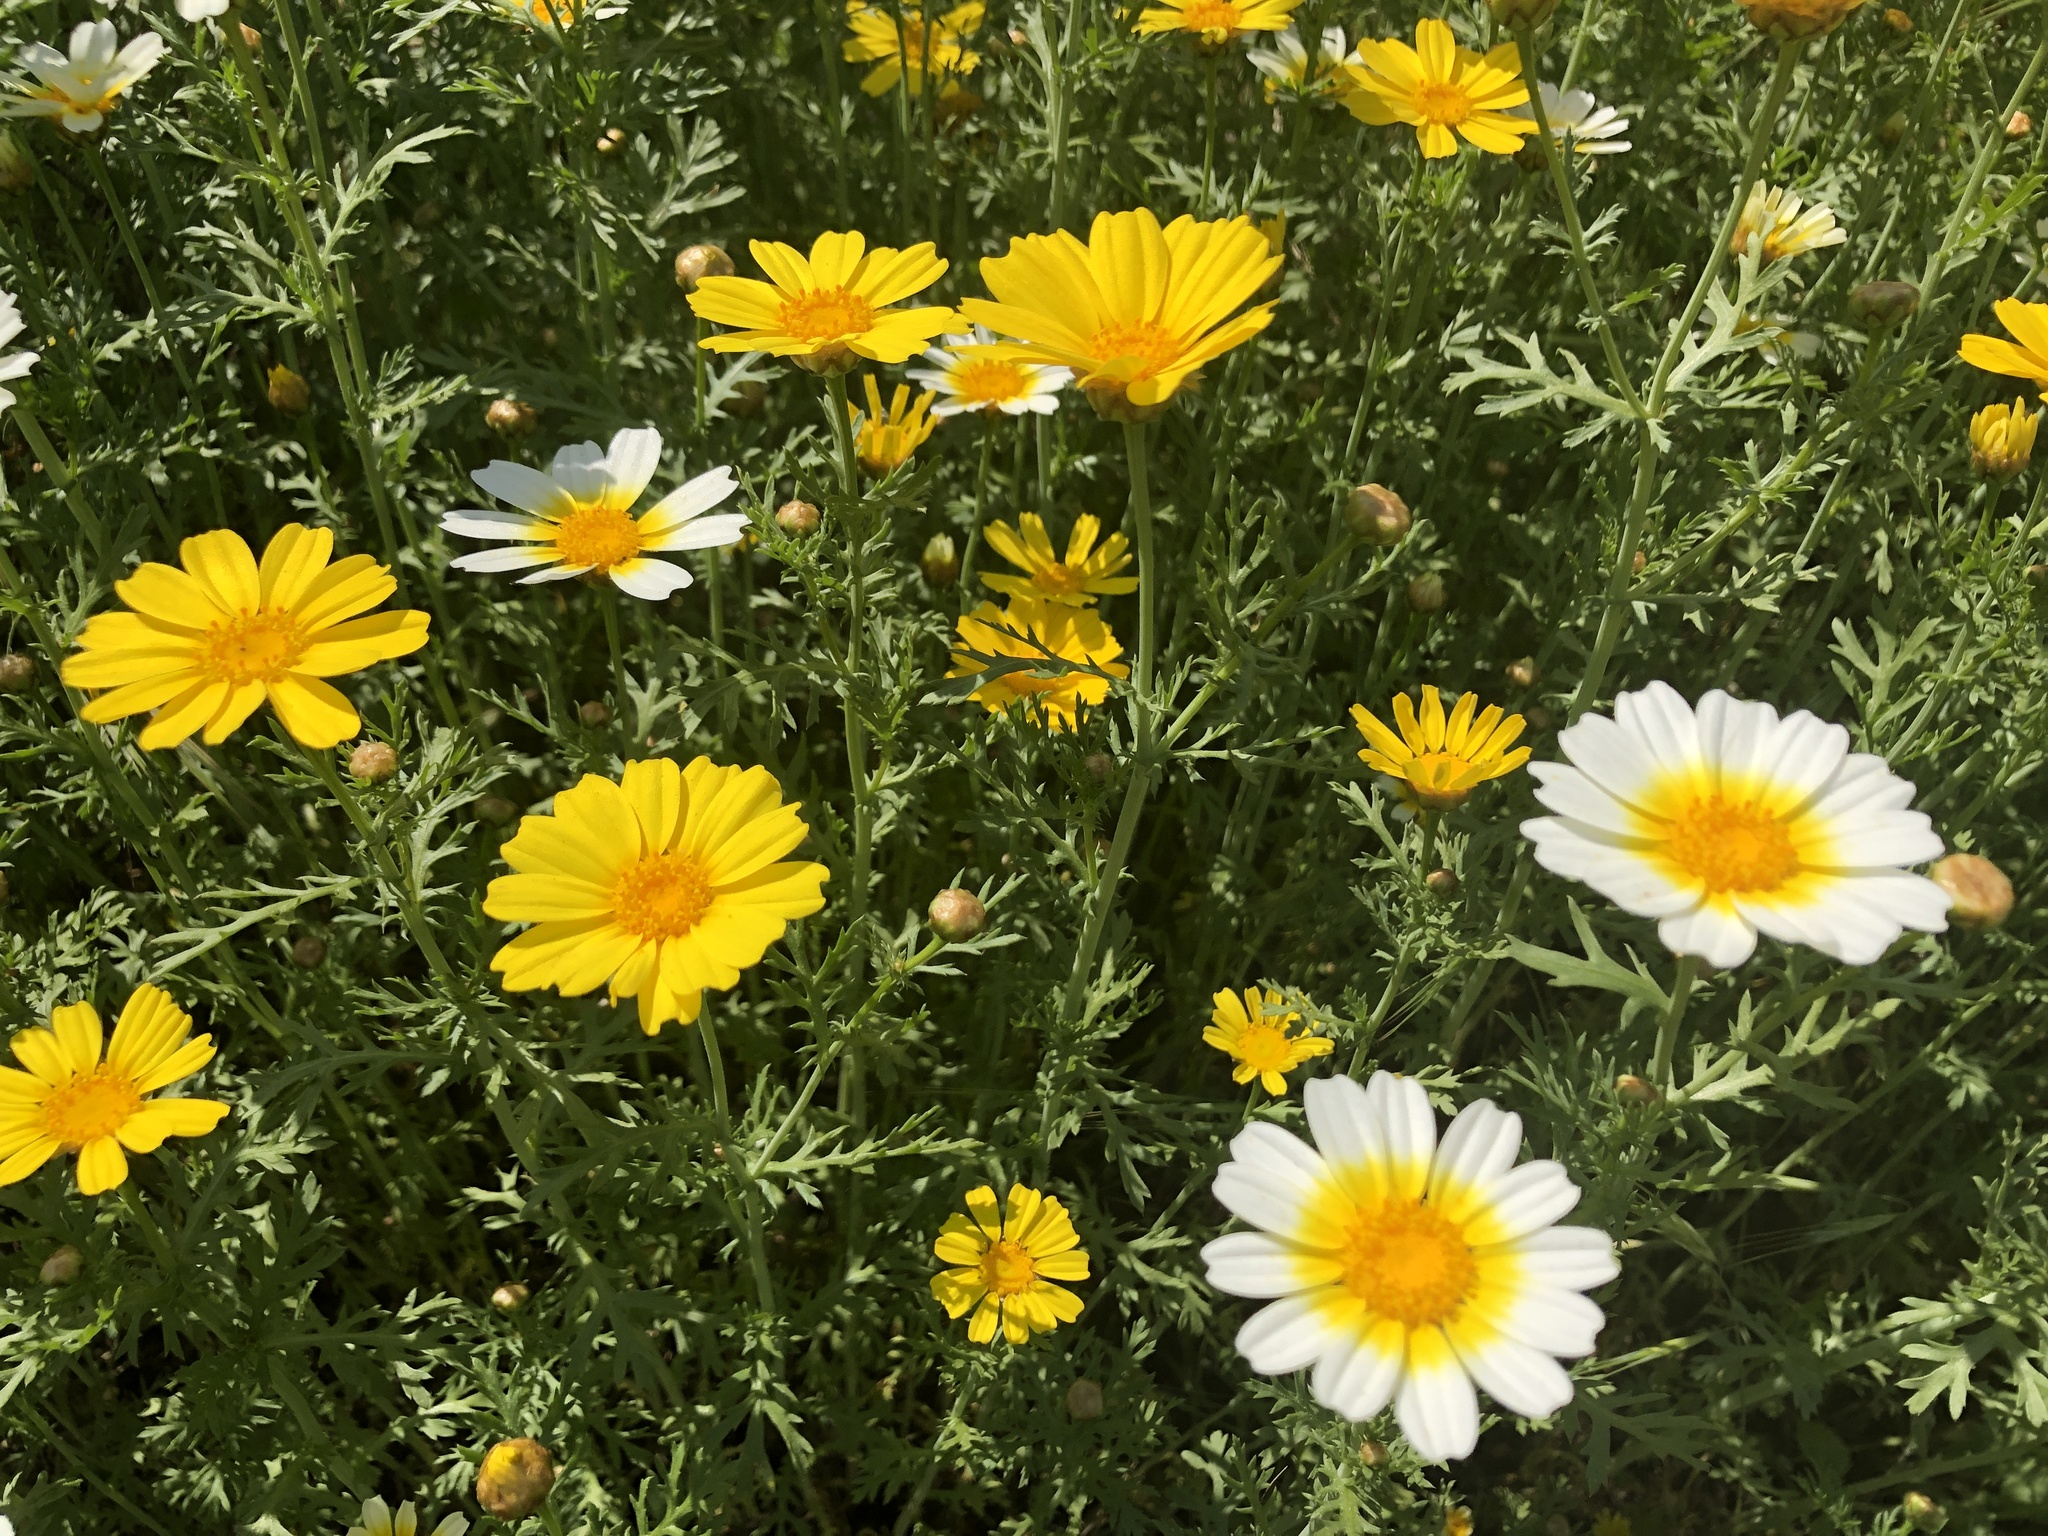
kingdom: Plantae
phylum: Tracheophyta
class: Magnoliopsida
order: Asterales
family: Asteraceae
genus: Glebionis
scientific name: Glebionis coronaria
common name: Crowndaisy
